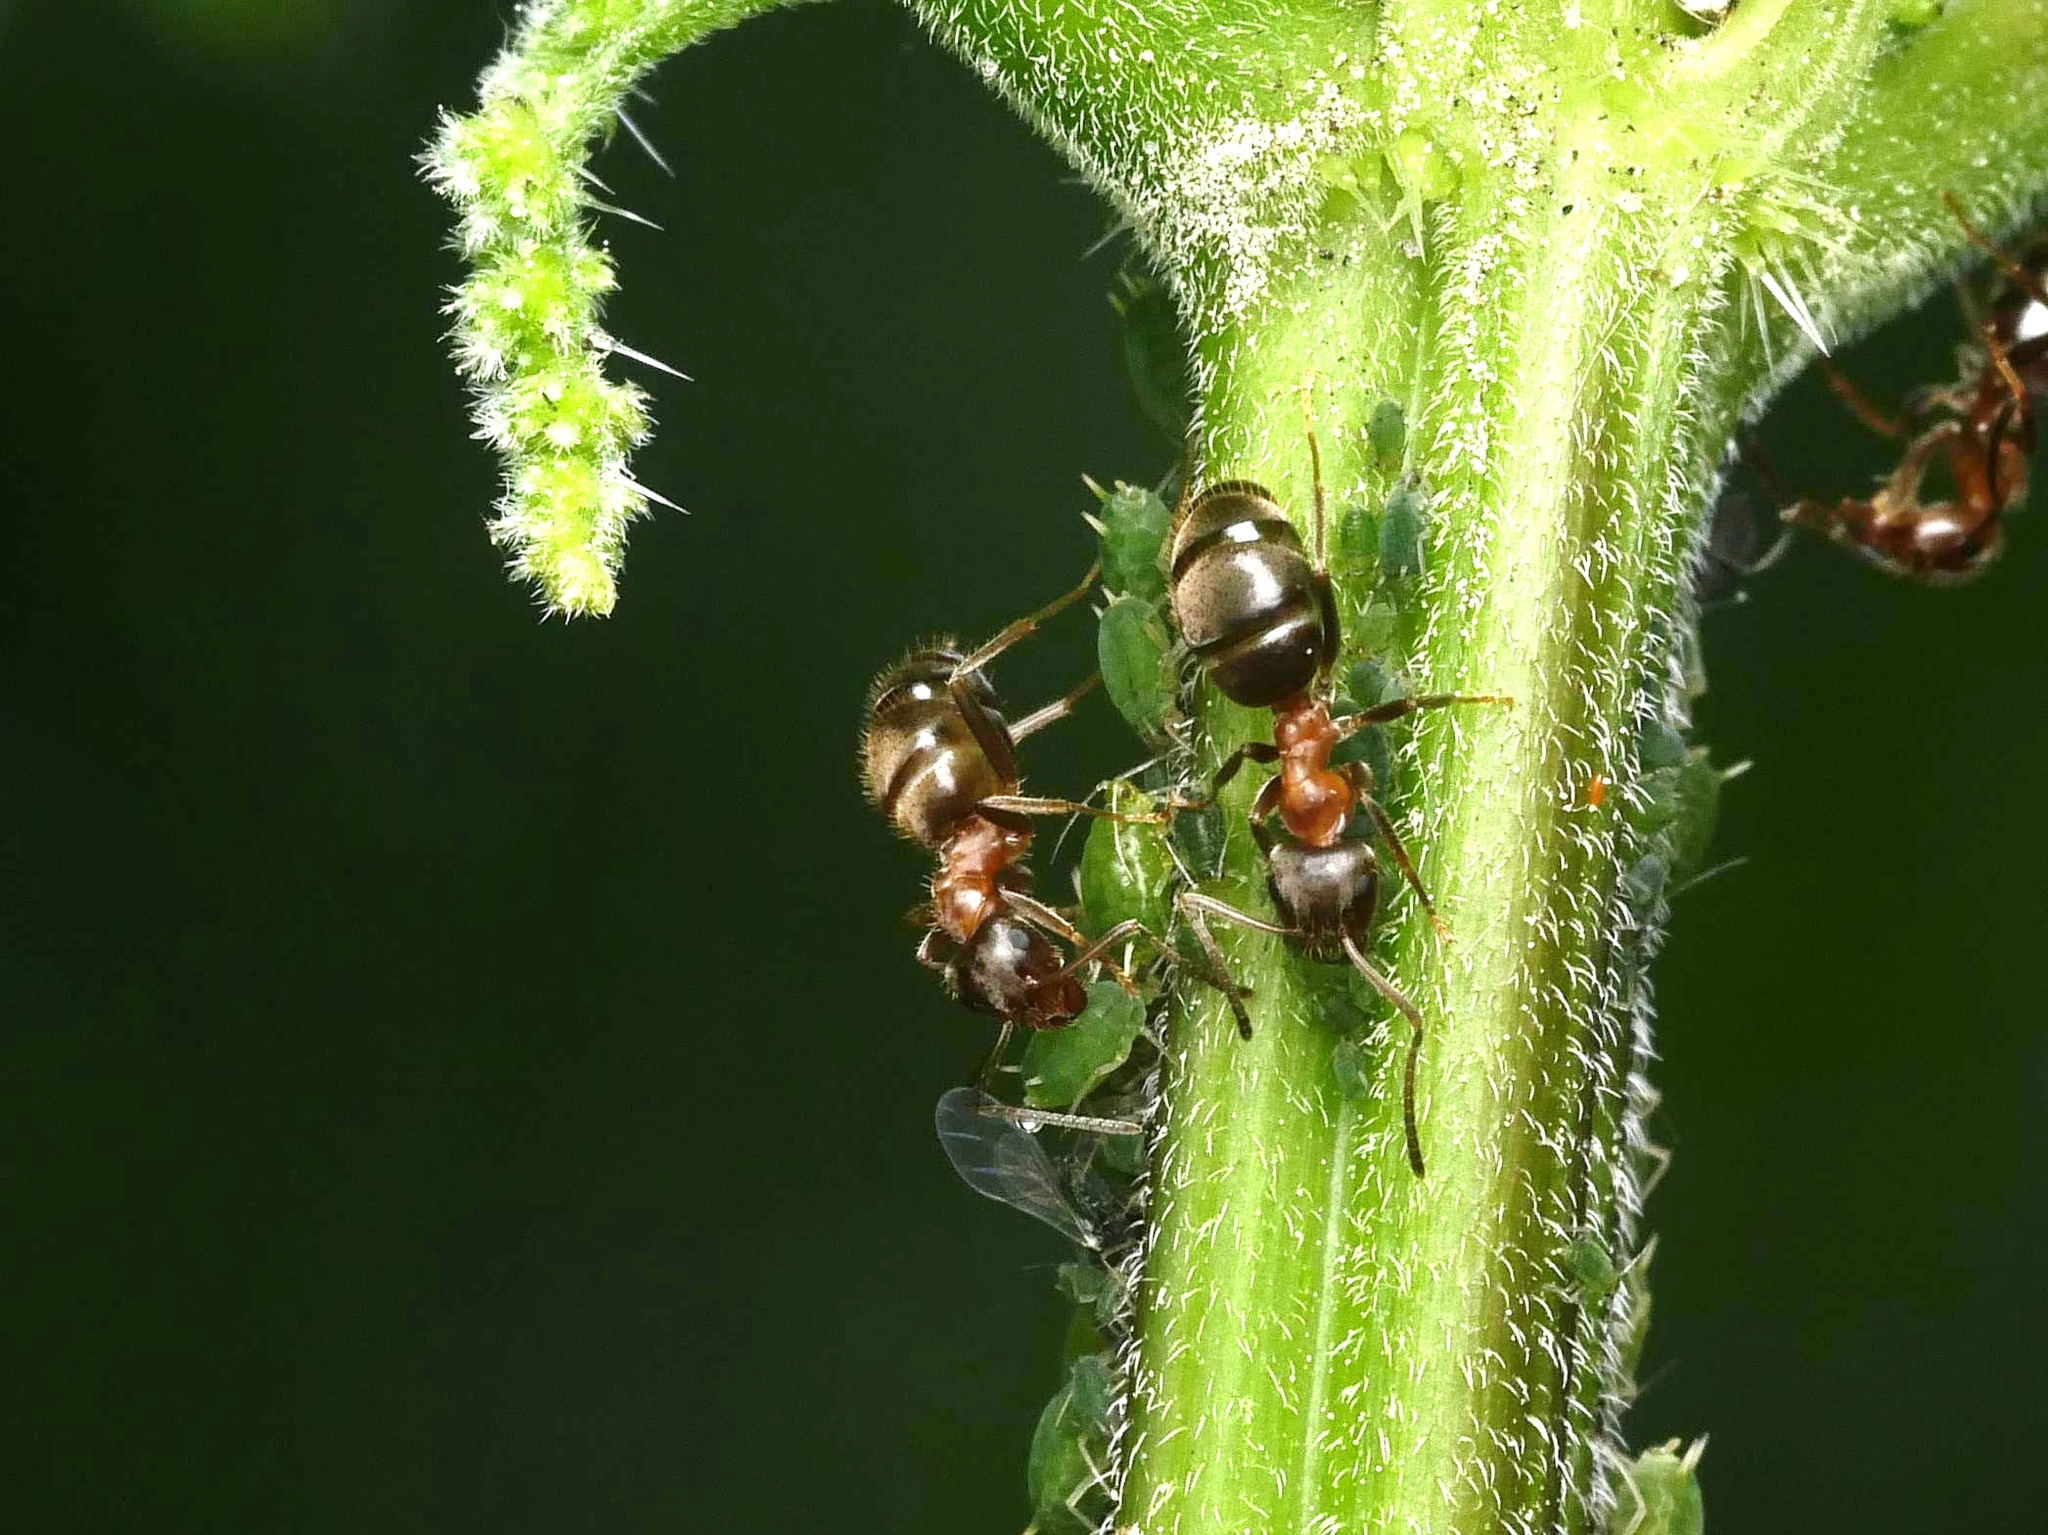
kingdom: Animalia
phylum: Arthropoda
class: Insecta
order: Hymenoptera
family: Formicidae
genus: Lasius
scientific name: Lasius emarginatus
